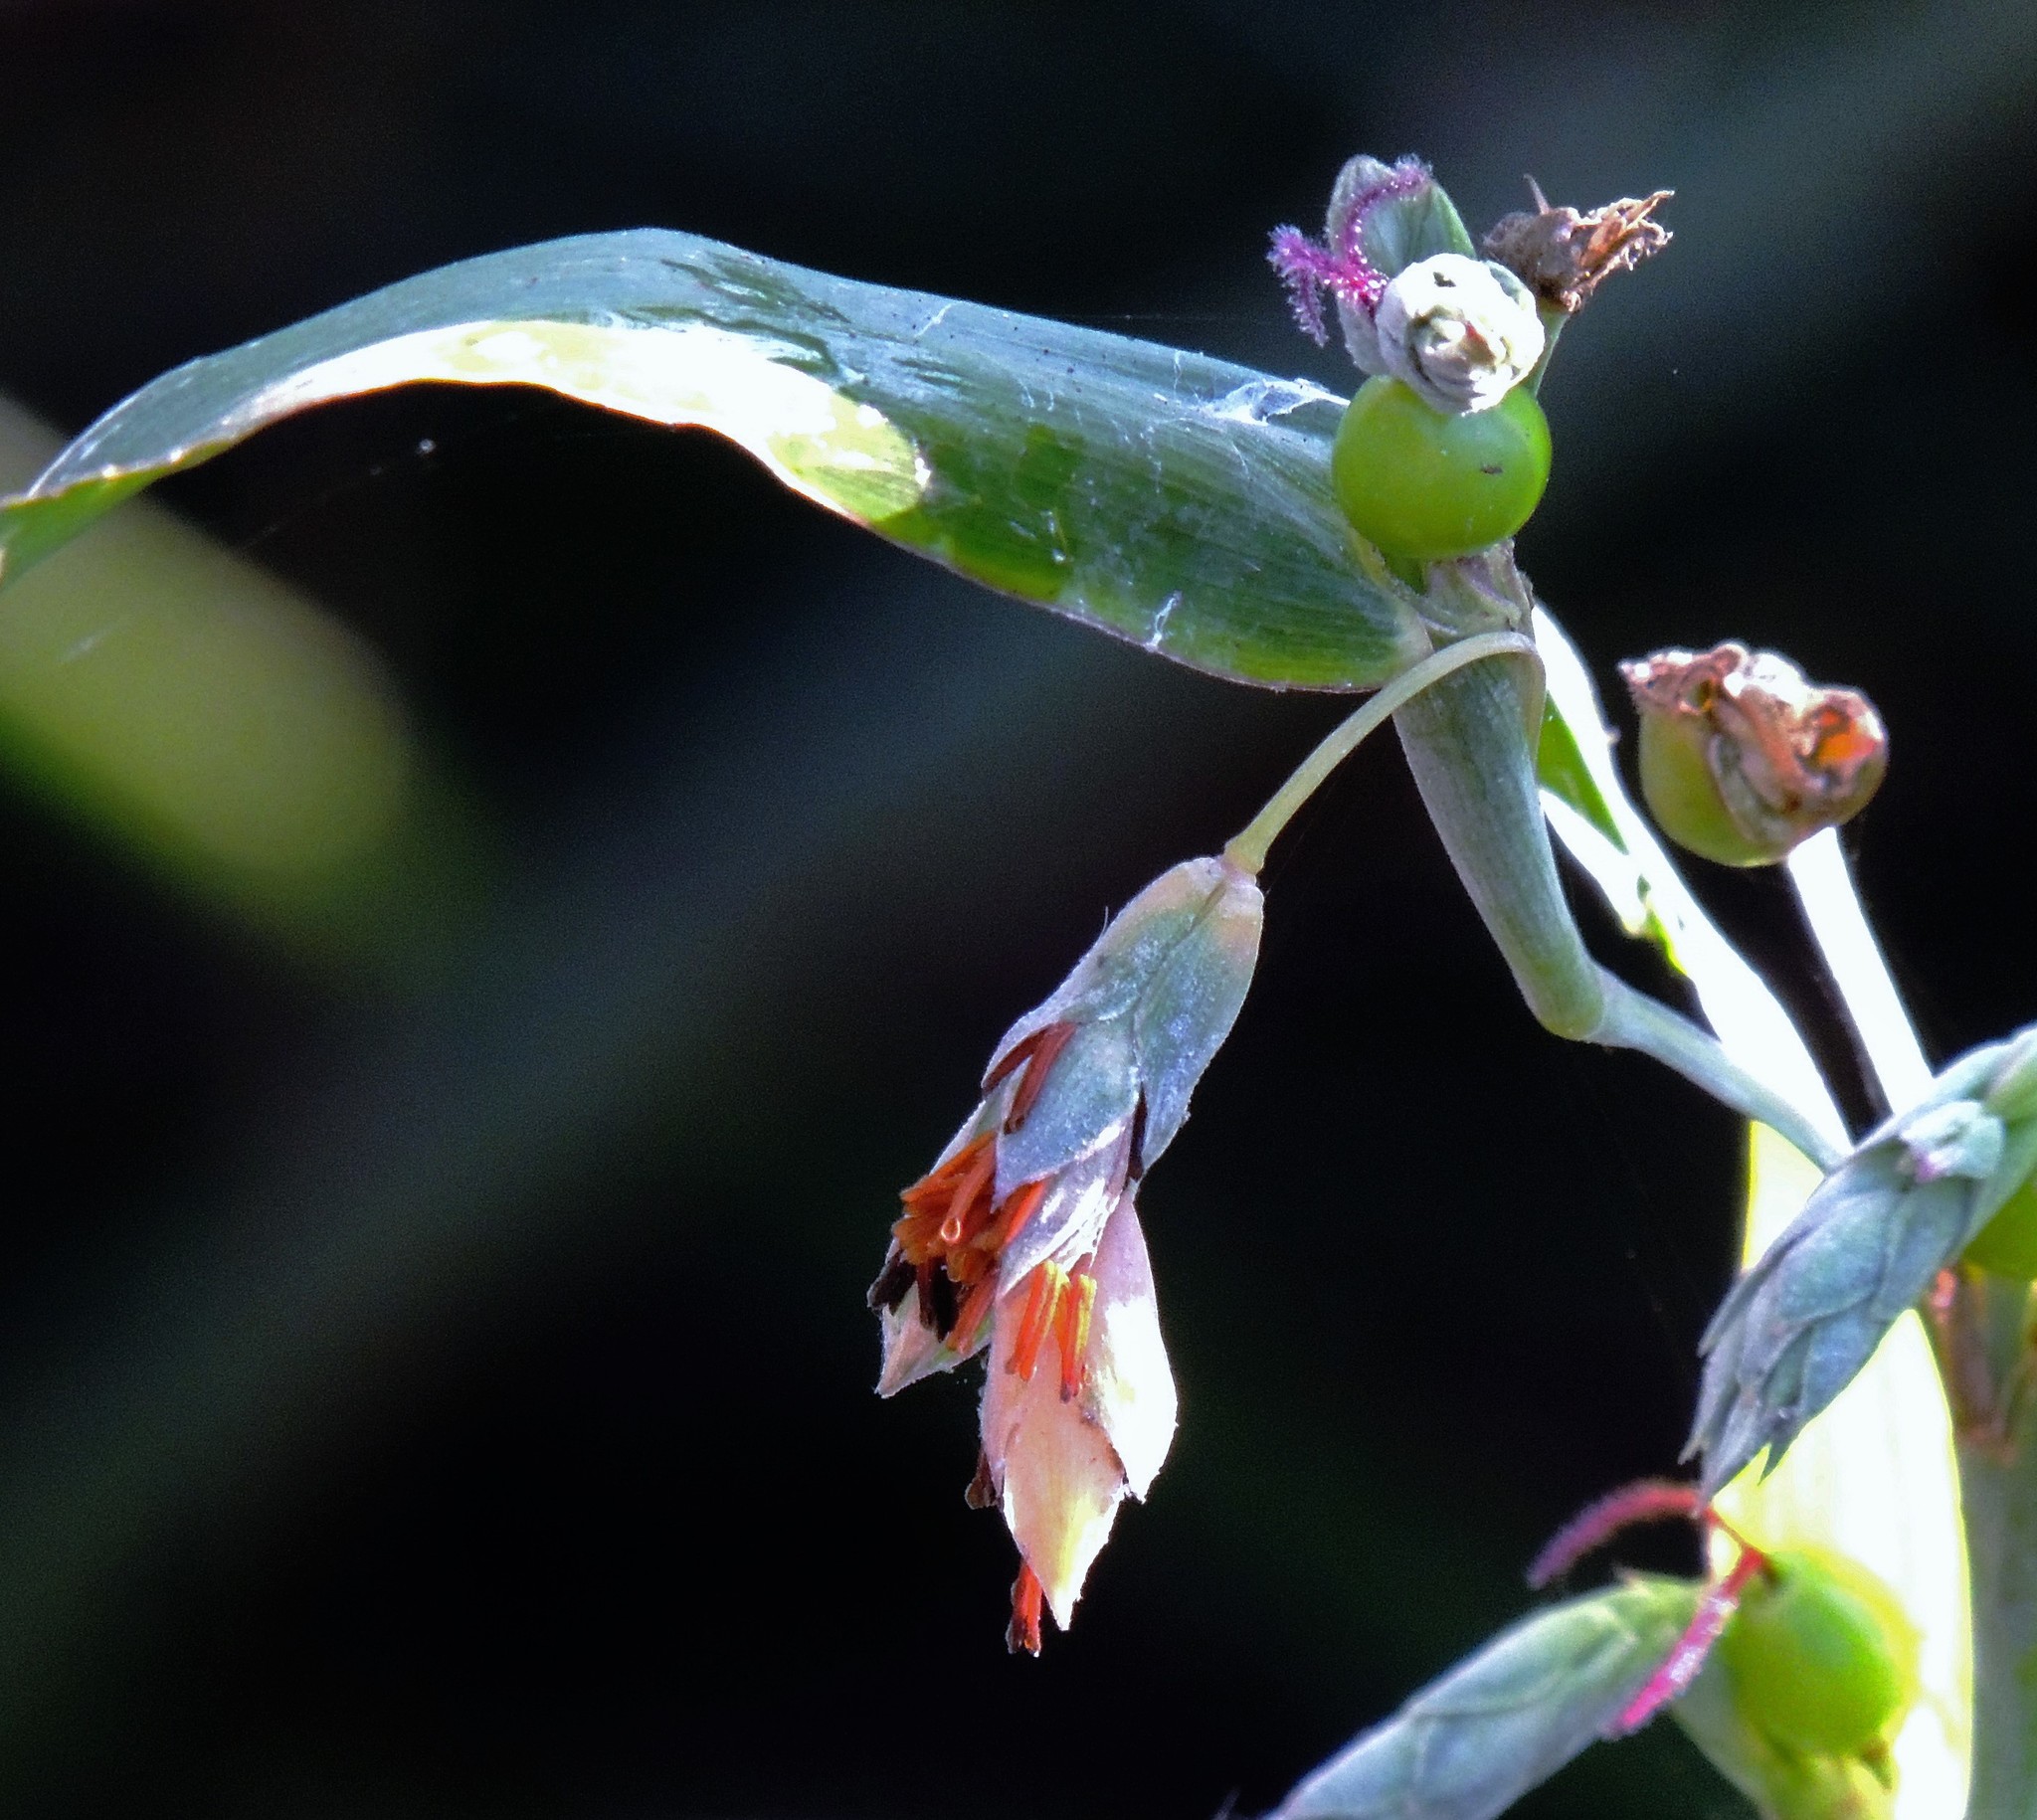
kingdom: Plantae
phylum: Tracheophyta
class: Liliopsida
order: Poales
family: Poaceae
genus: Coix
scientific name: Coix lacryma-jobi
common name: Job's tears
